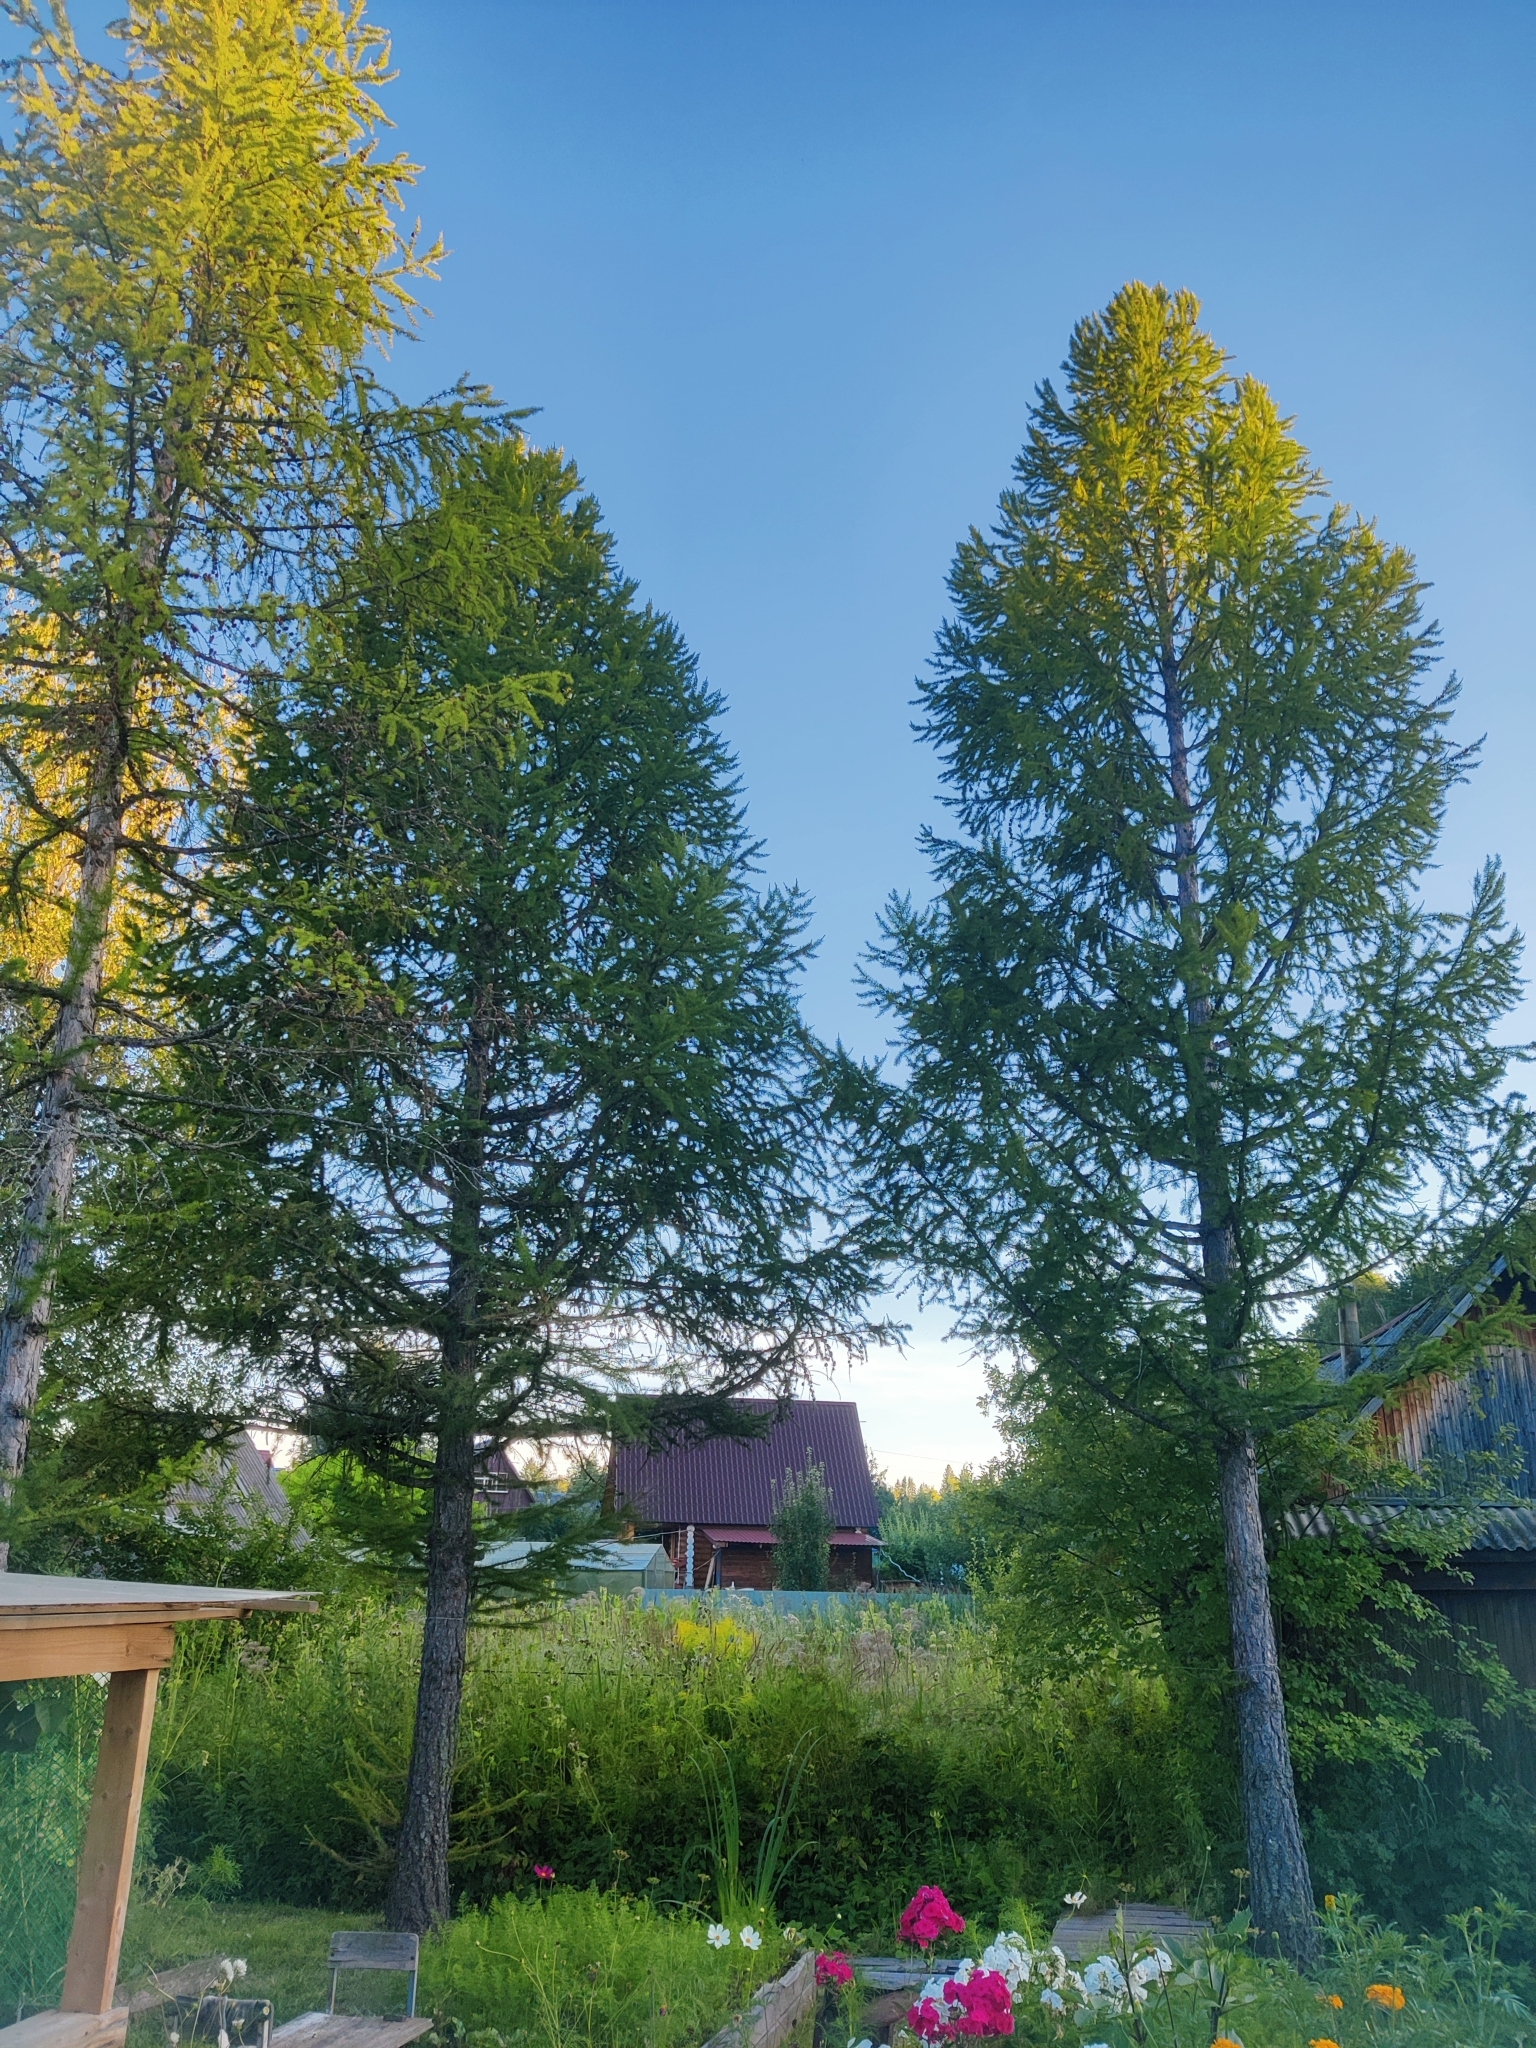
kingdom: Plantae
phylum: Tracheophyta
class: Pinopsida
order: Pinales
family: Pinaceae
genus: Larix
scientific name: Larix sibirica
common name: Siberian larch
